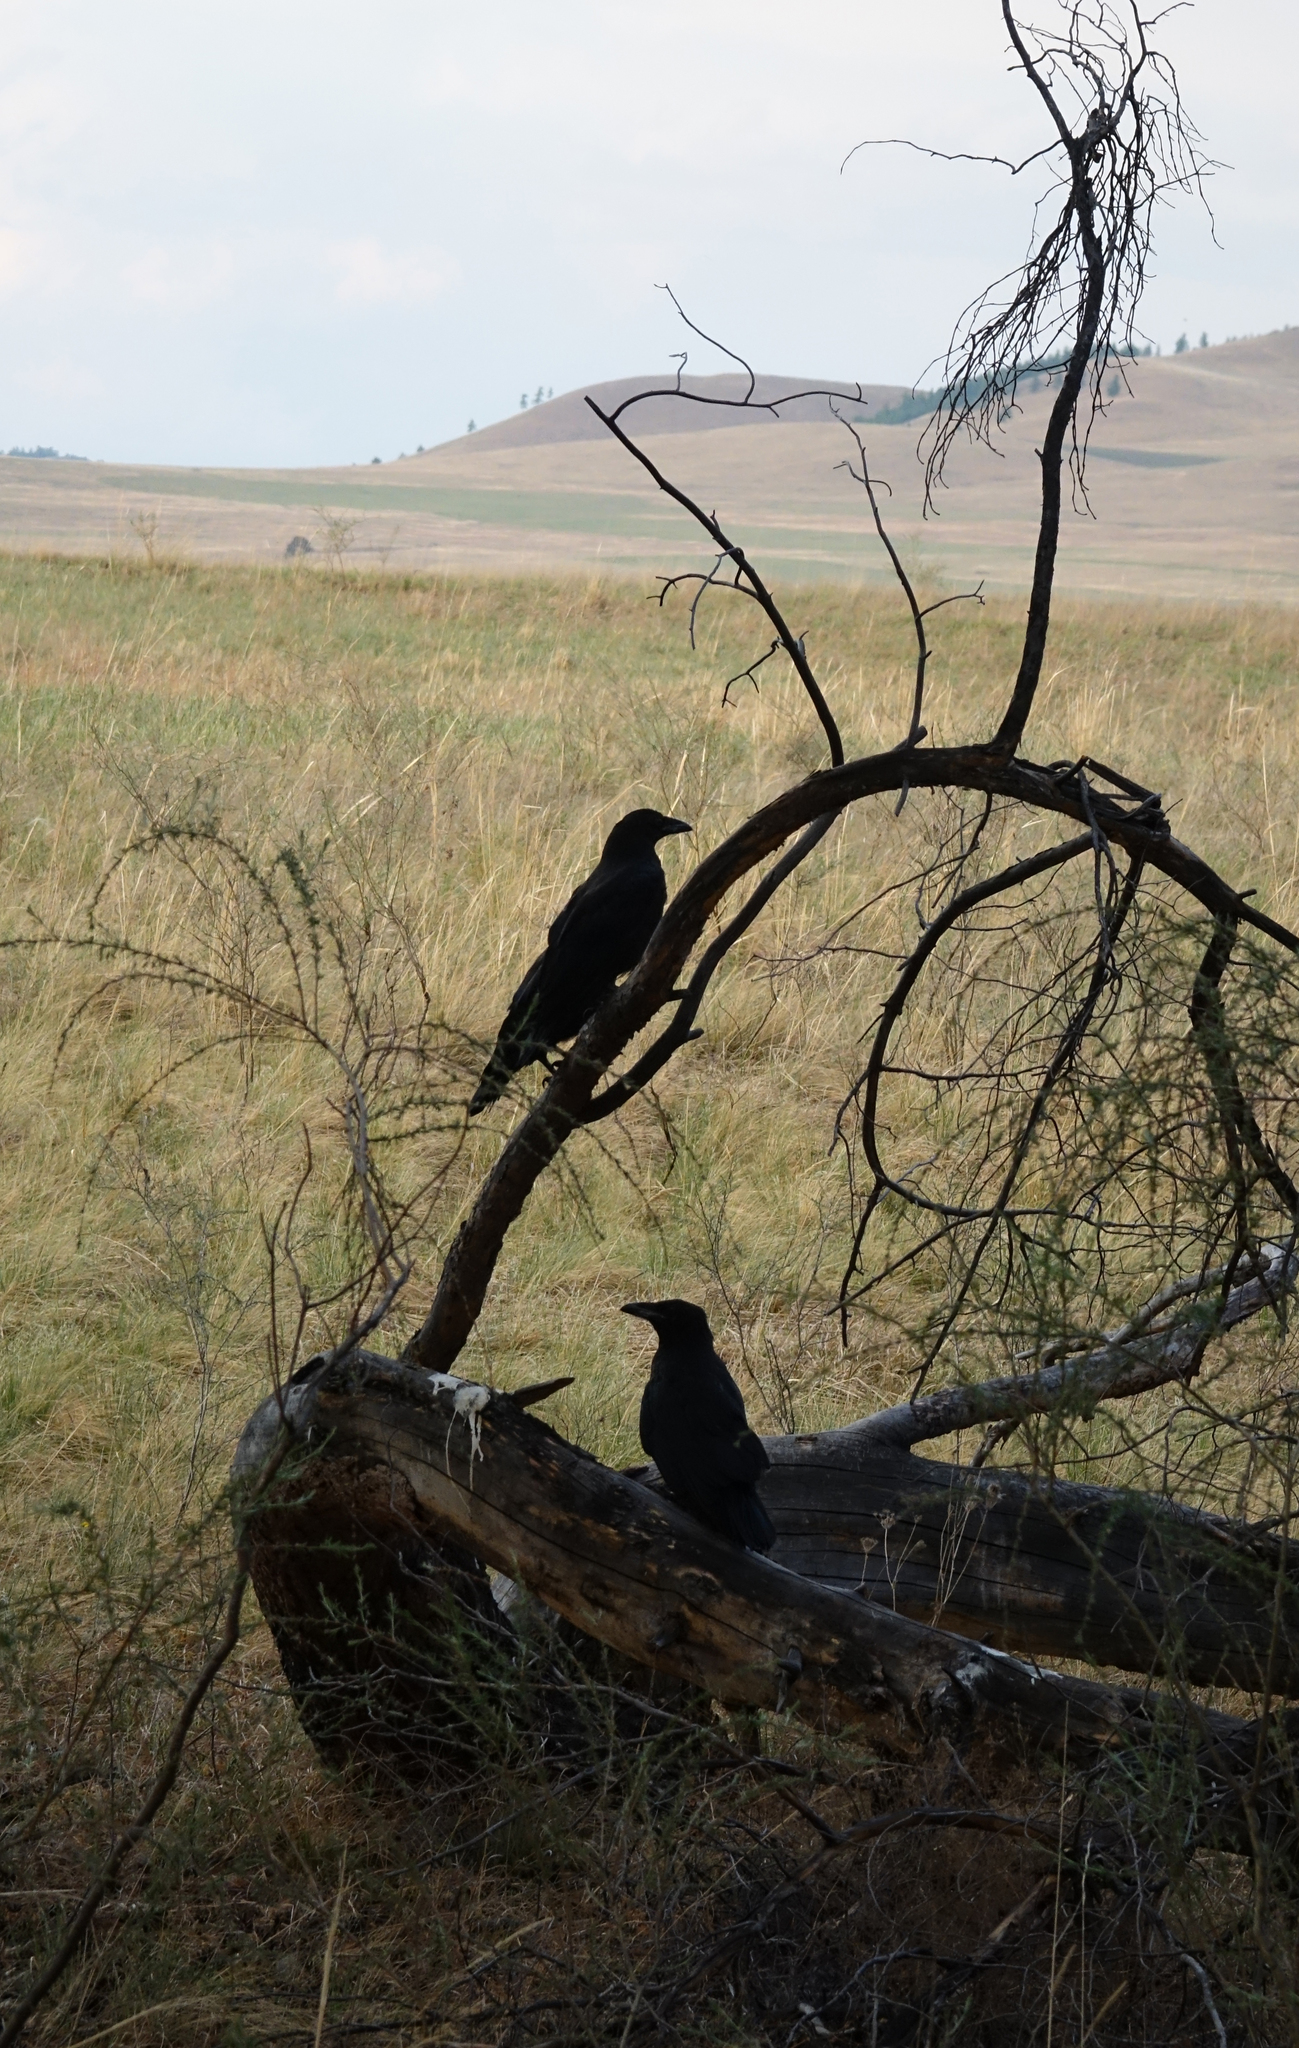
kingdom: Animalia
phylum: Chordata
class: Aves
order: Passeriformes
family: Corvidae
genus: Corvus
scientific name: Corvus corax
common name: Common raven
